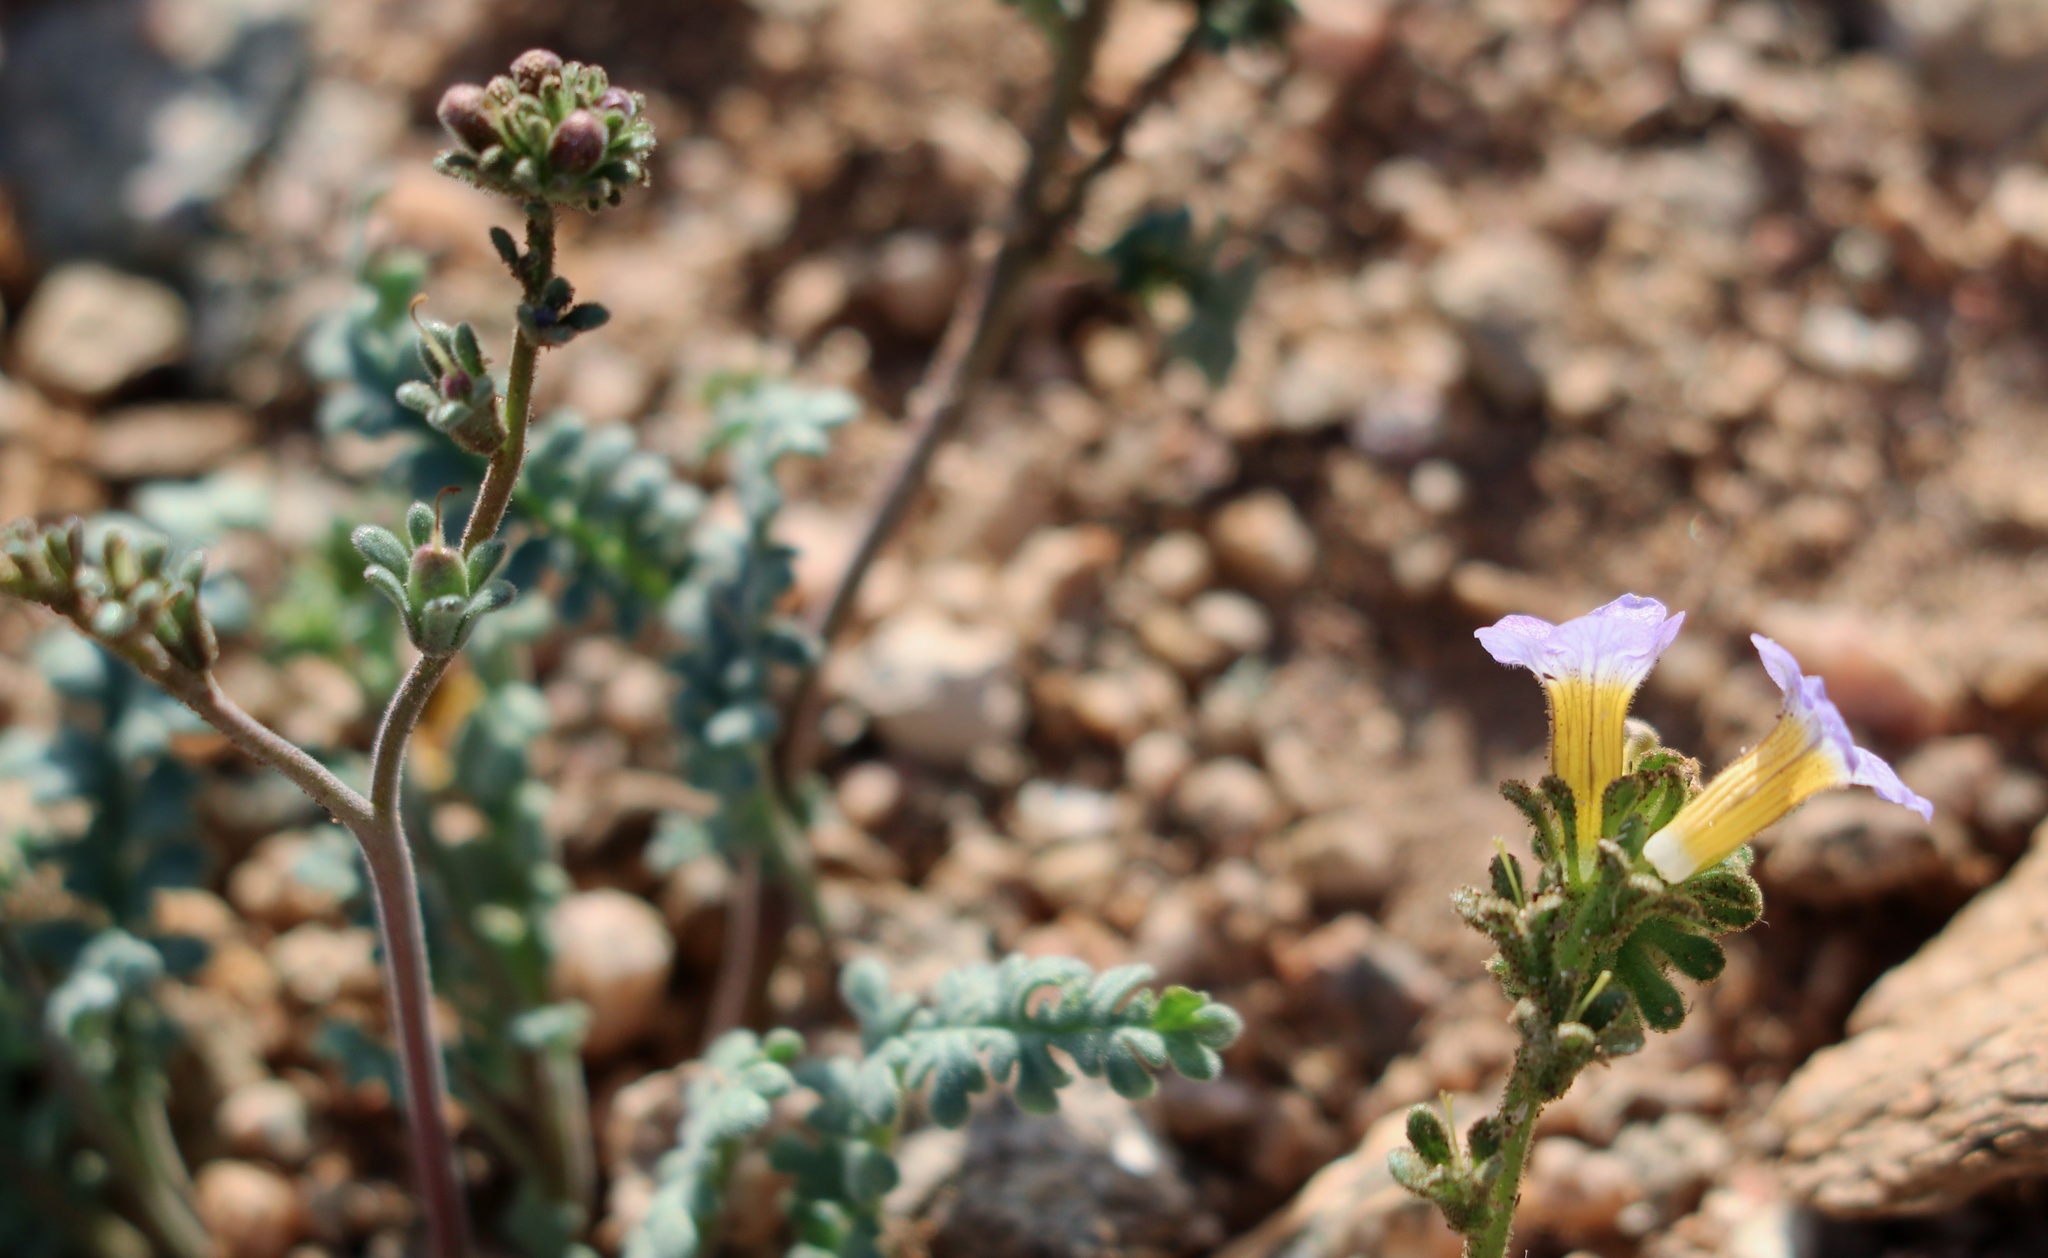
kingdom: Plantae
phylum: Tracheophyta
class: Magnoliopsida
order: Boraginales
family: Hydrophyllaceae
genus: Phacelia
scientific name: Phacelia fremontii
